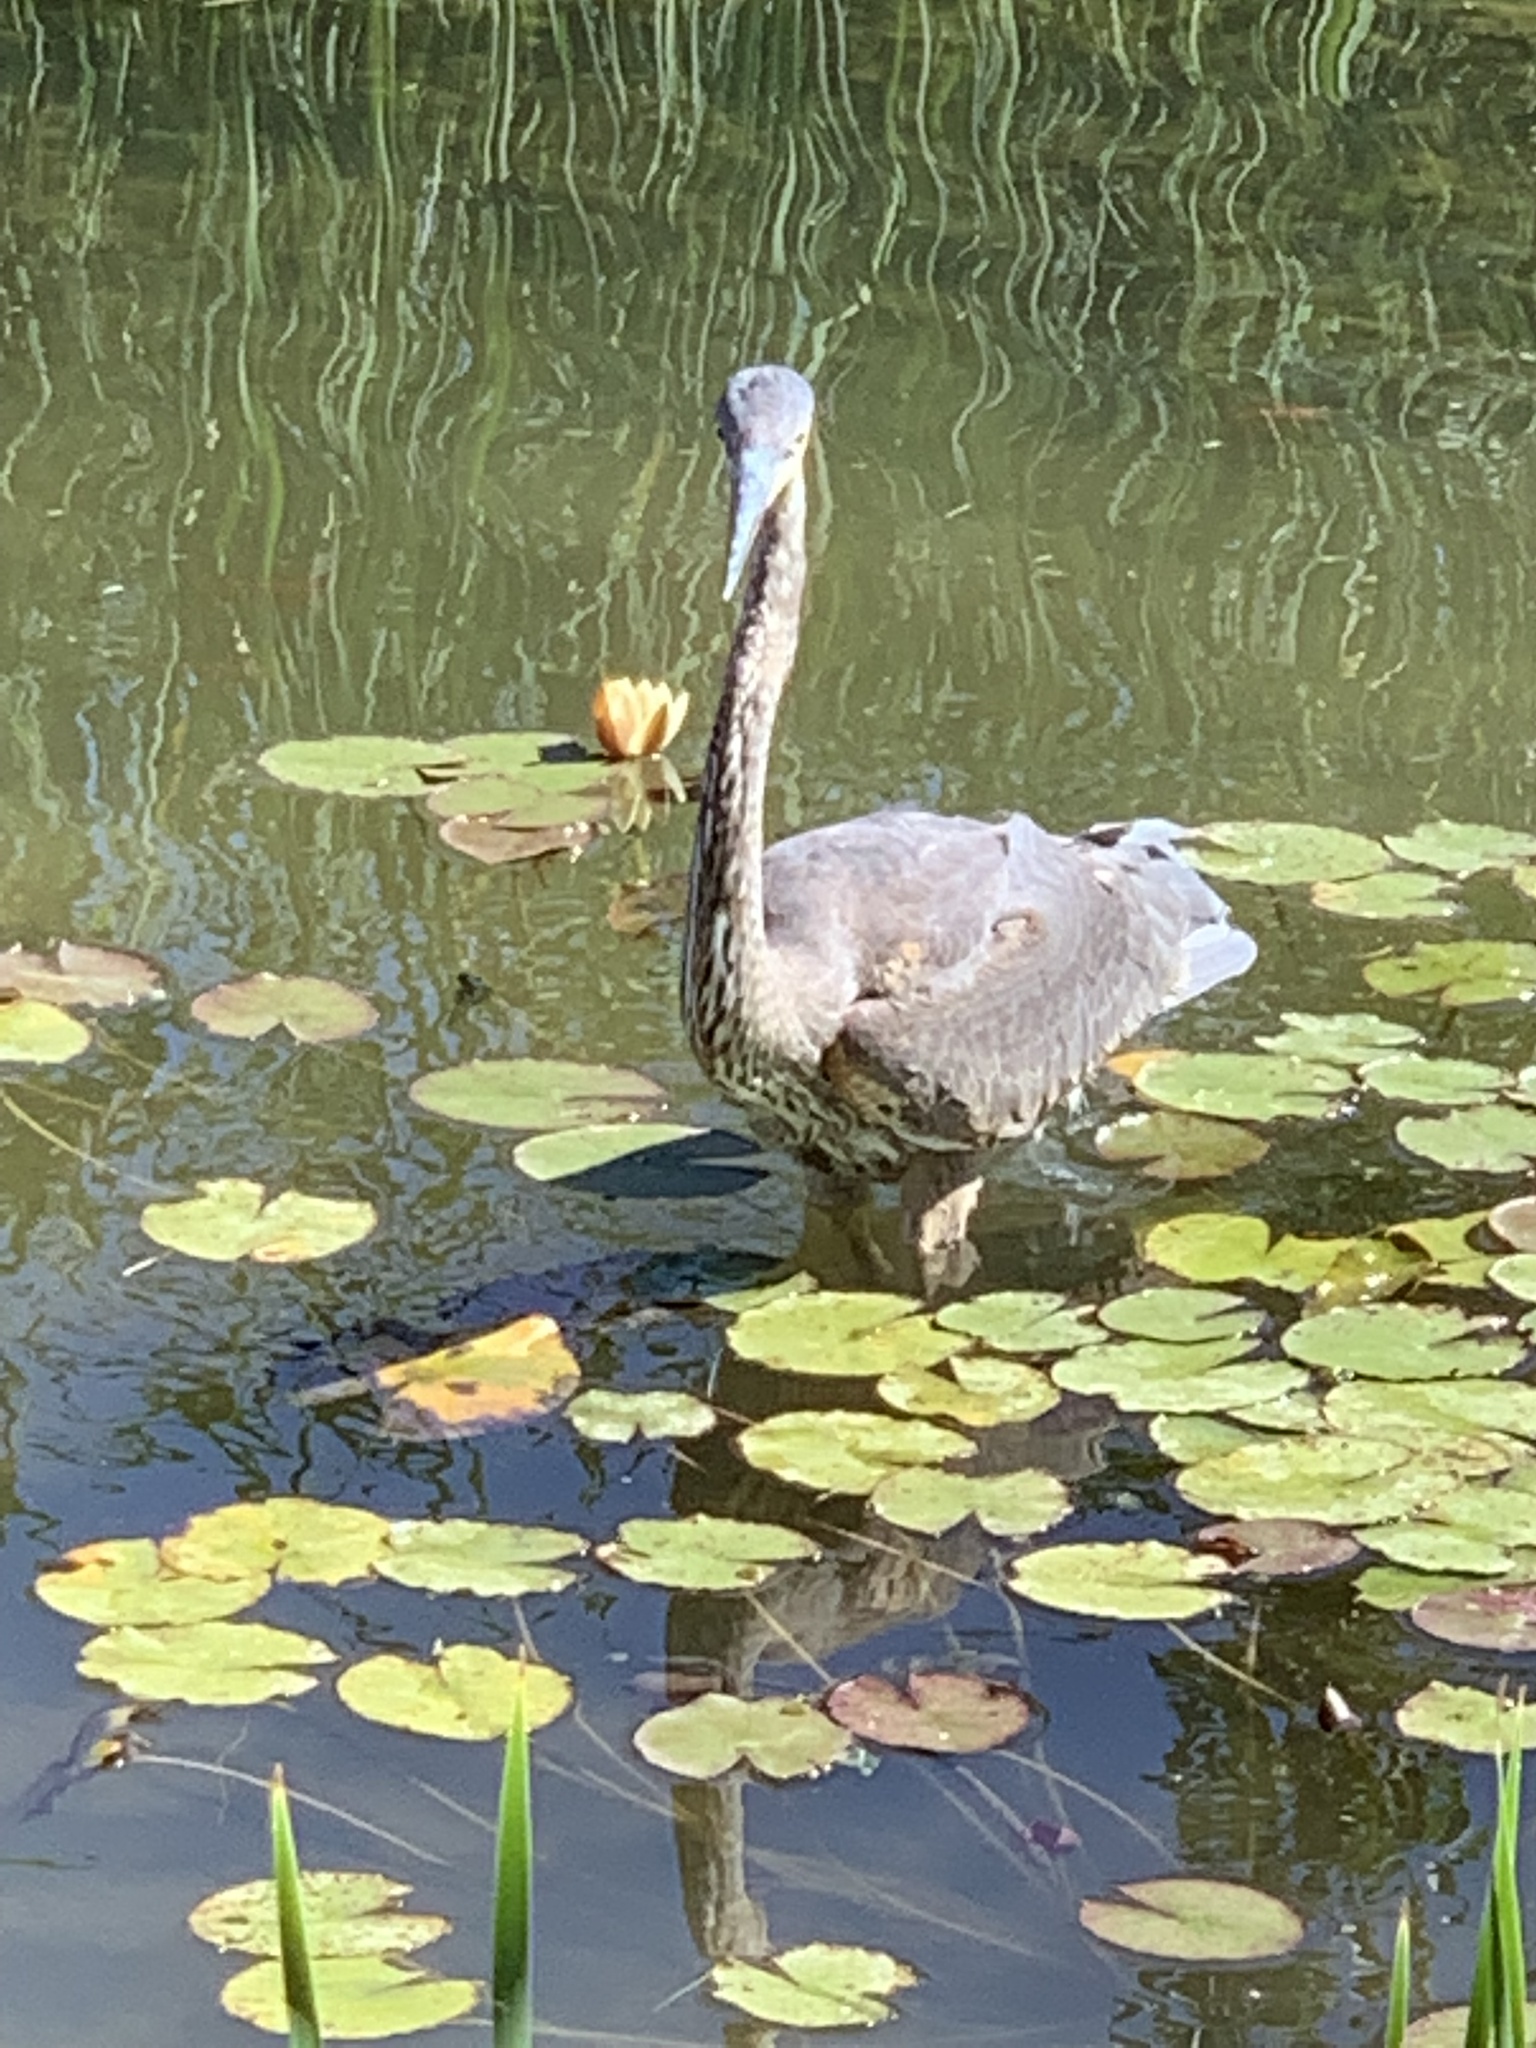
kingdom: Animalia
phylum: Chordata
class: Aves
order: Pelecaniformes
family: Ardeidae
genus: Ardea
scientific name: Ardea herodias
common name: Great blue heron
